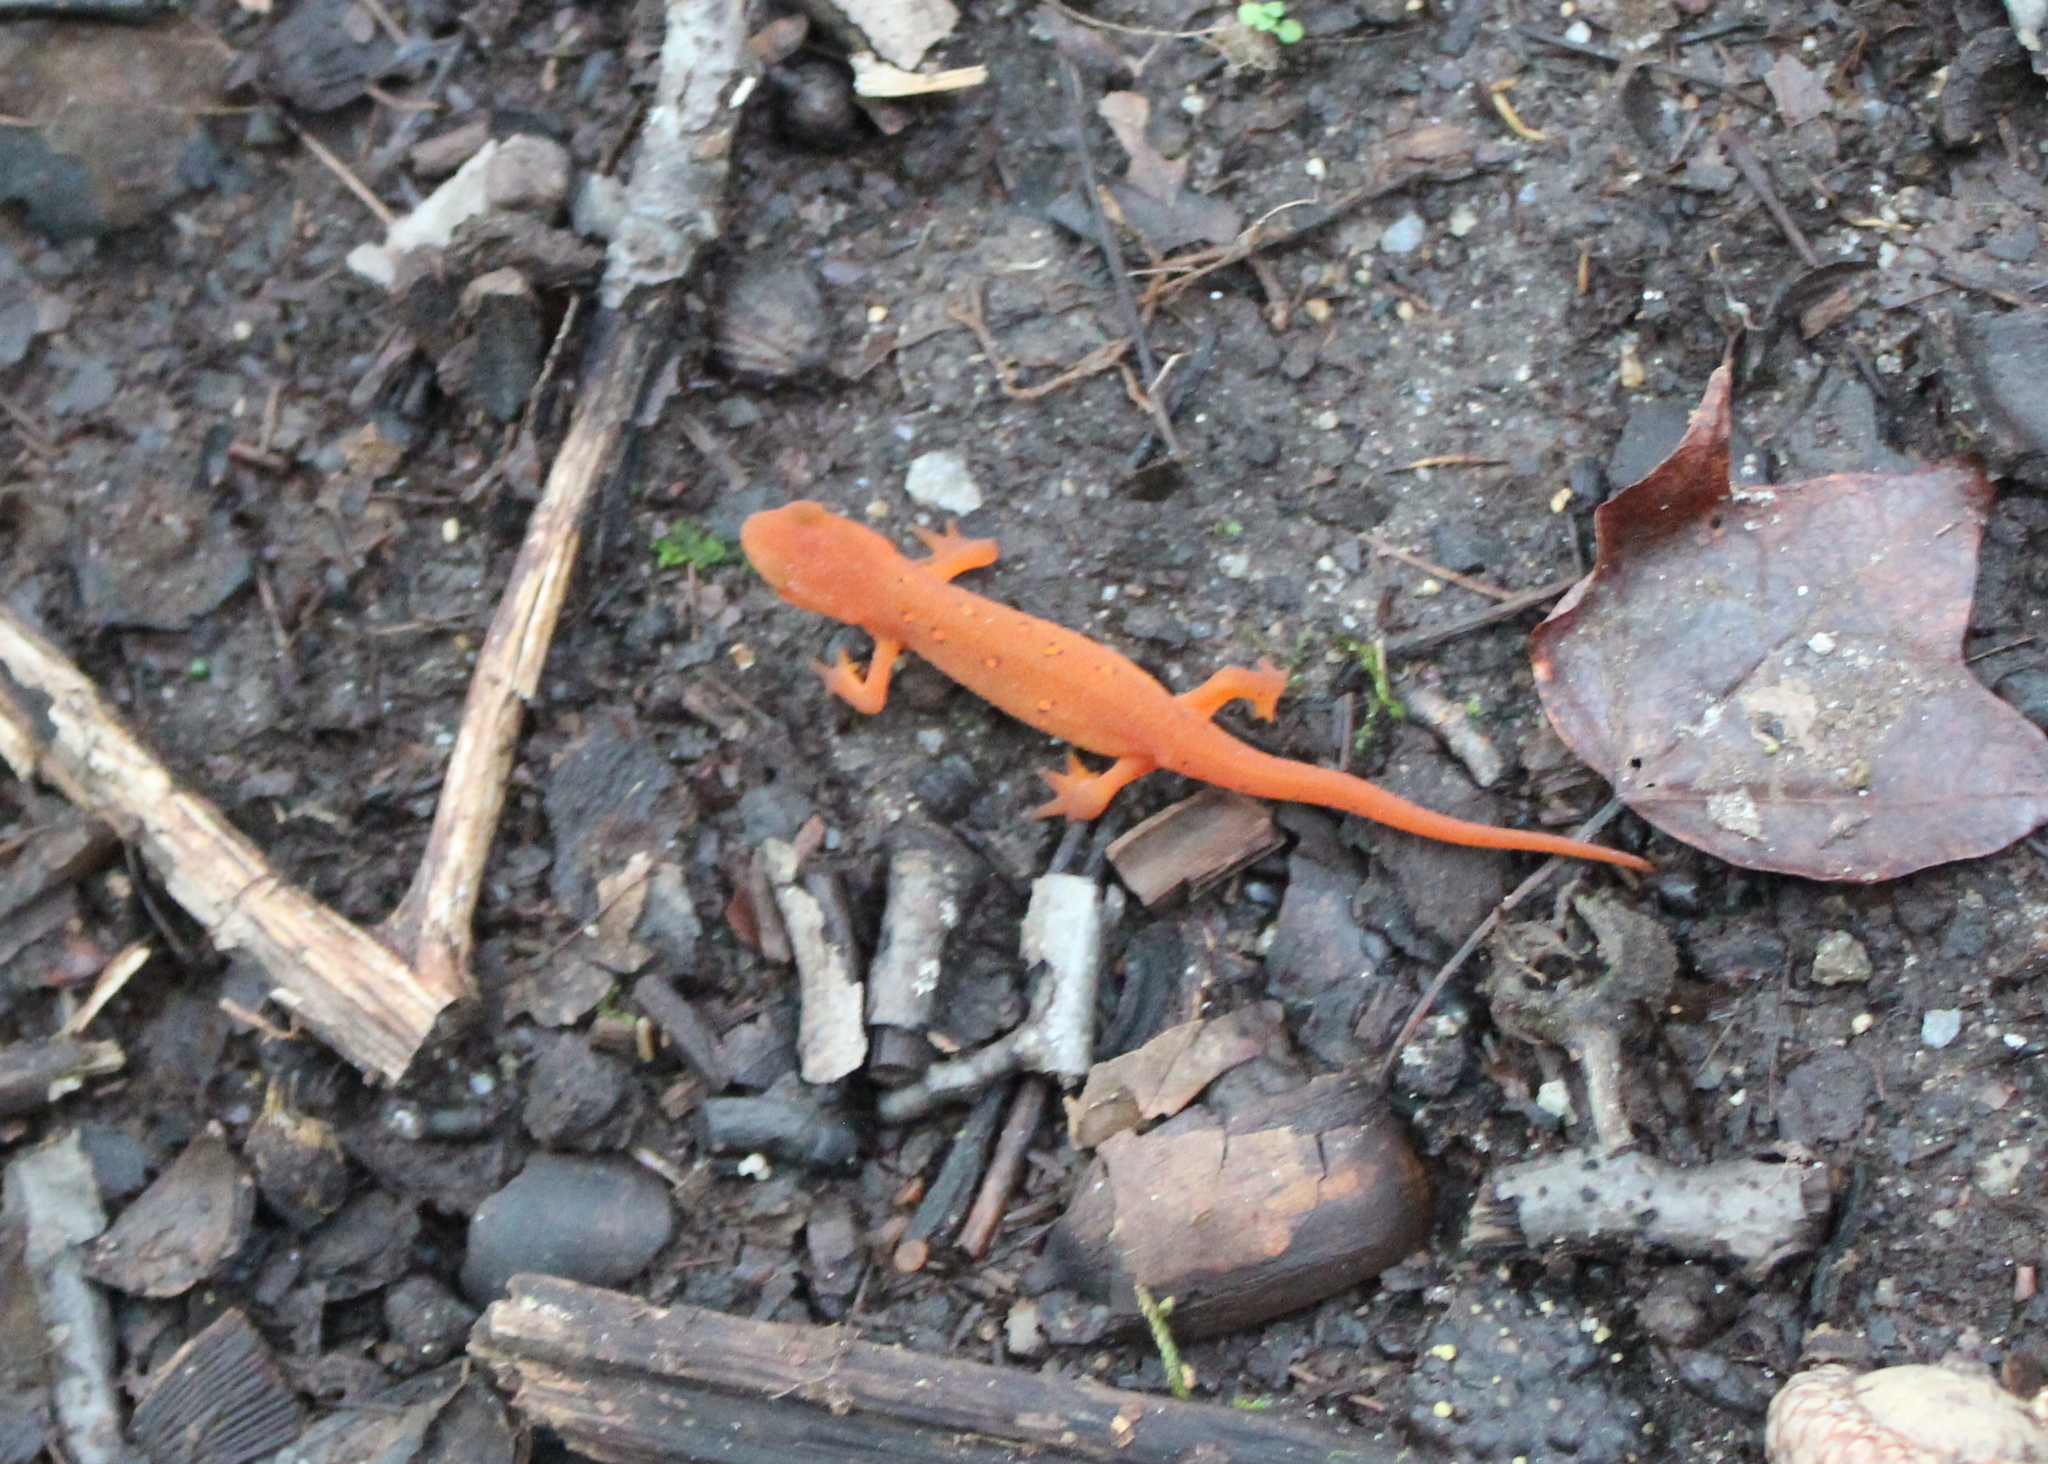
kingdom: Animalia
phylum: Chordata
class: Amphibia
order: Caudata
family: Salamandridae
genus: Notophthalmus
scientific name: Notophthalmus viridescens
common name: Eastern newt
